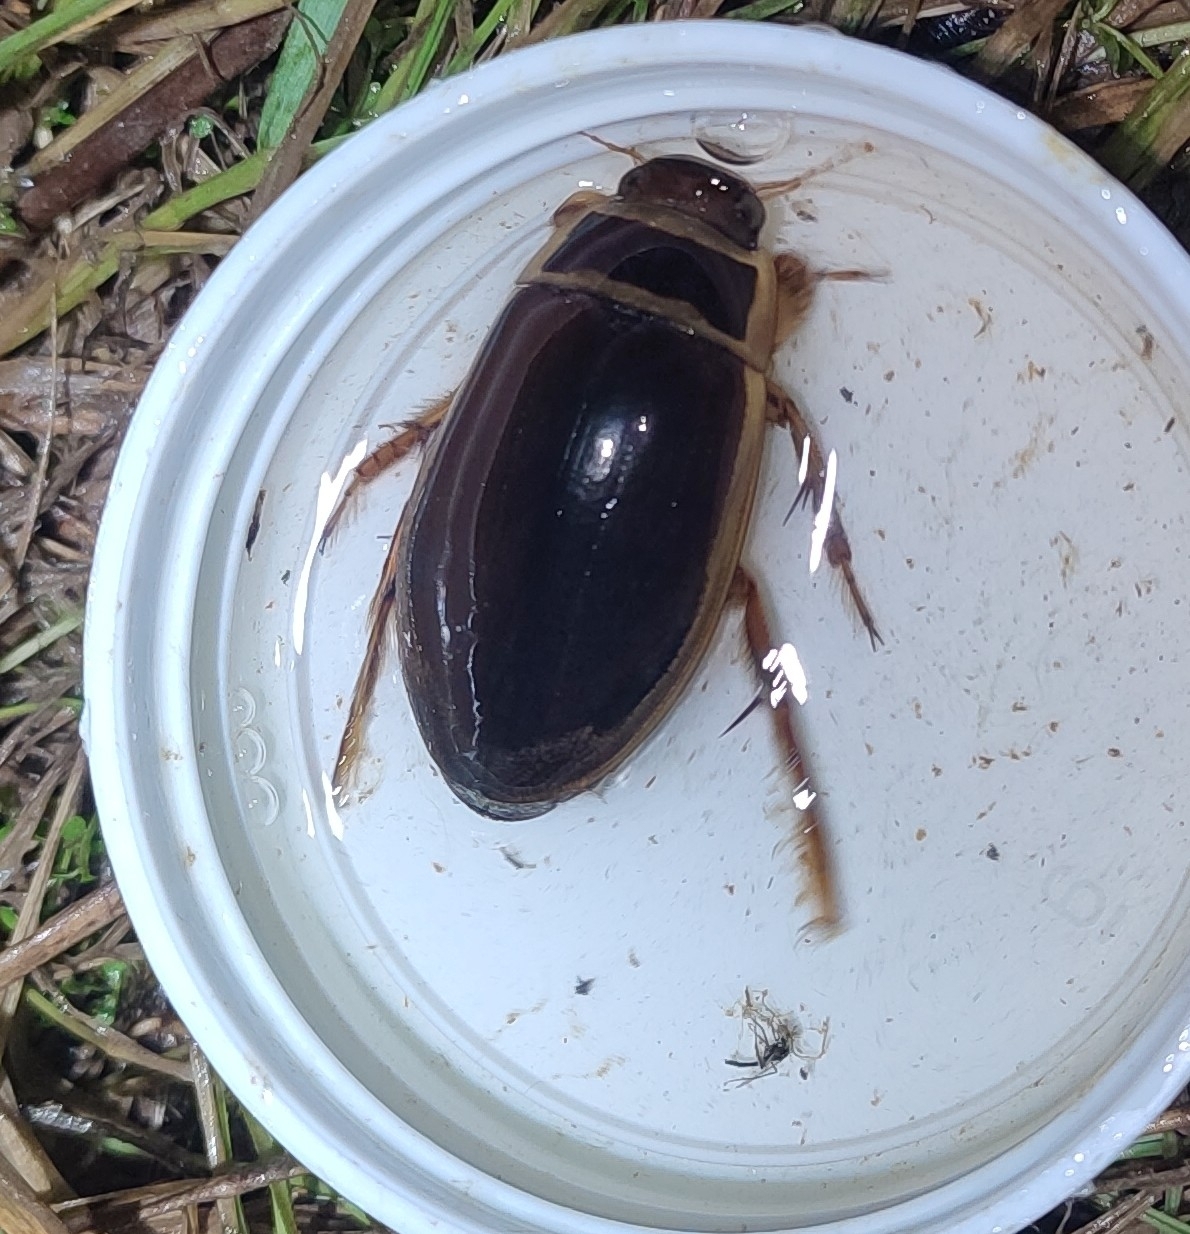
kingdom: Animalia
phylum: Arthropoda
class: Insecta
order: Coleoptera
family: Dytiscidae
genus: Dytiscus
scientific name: Dytiscus marginalis
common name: Great water beetle
